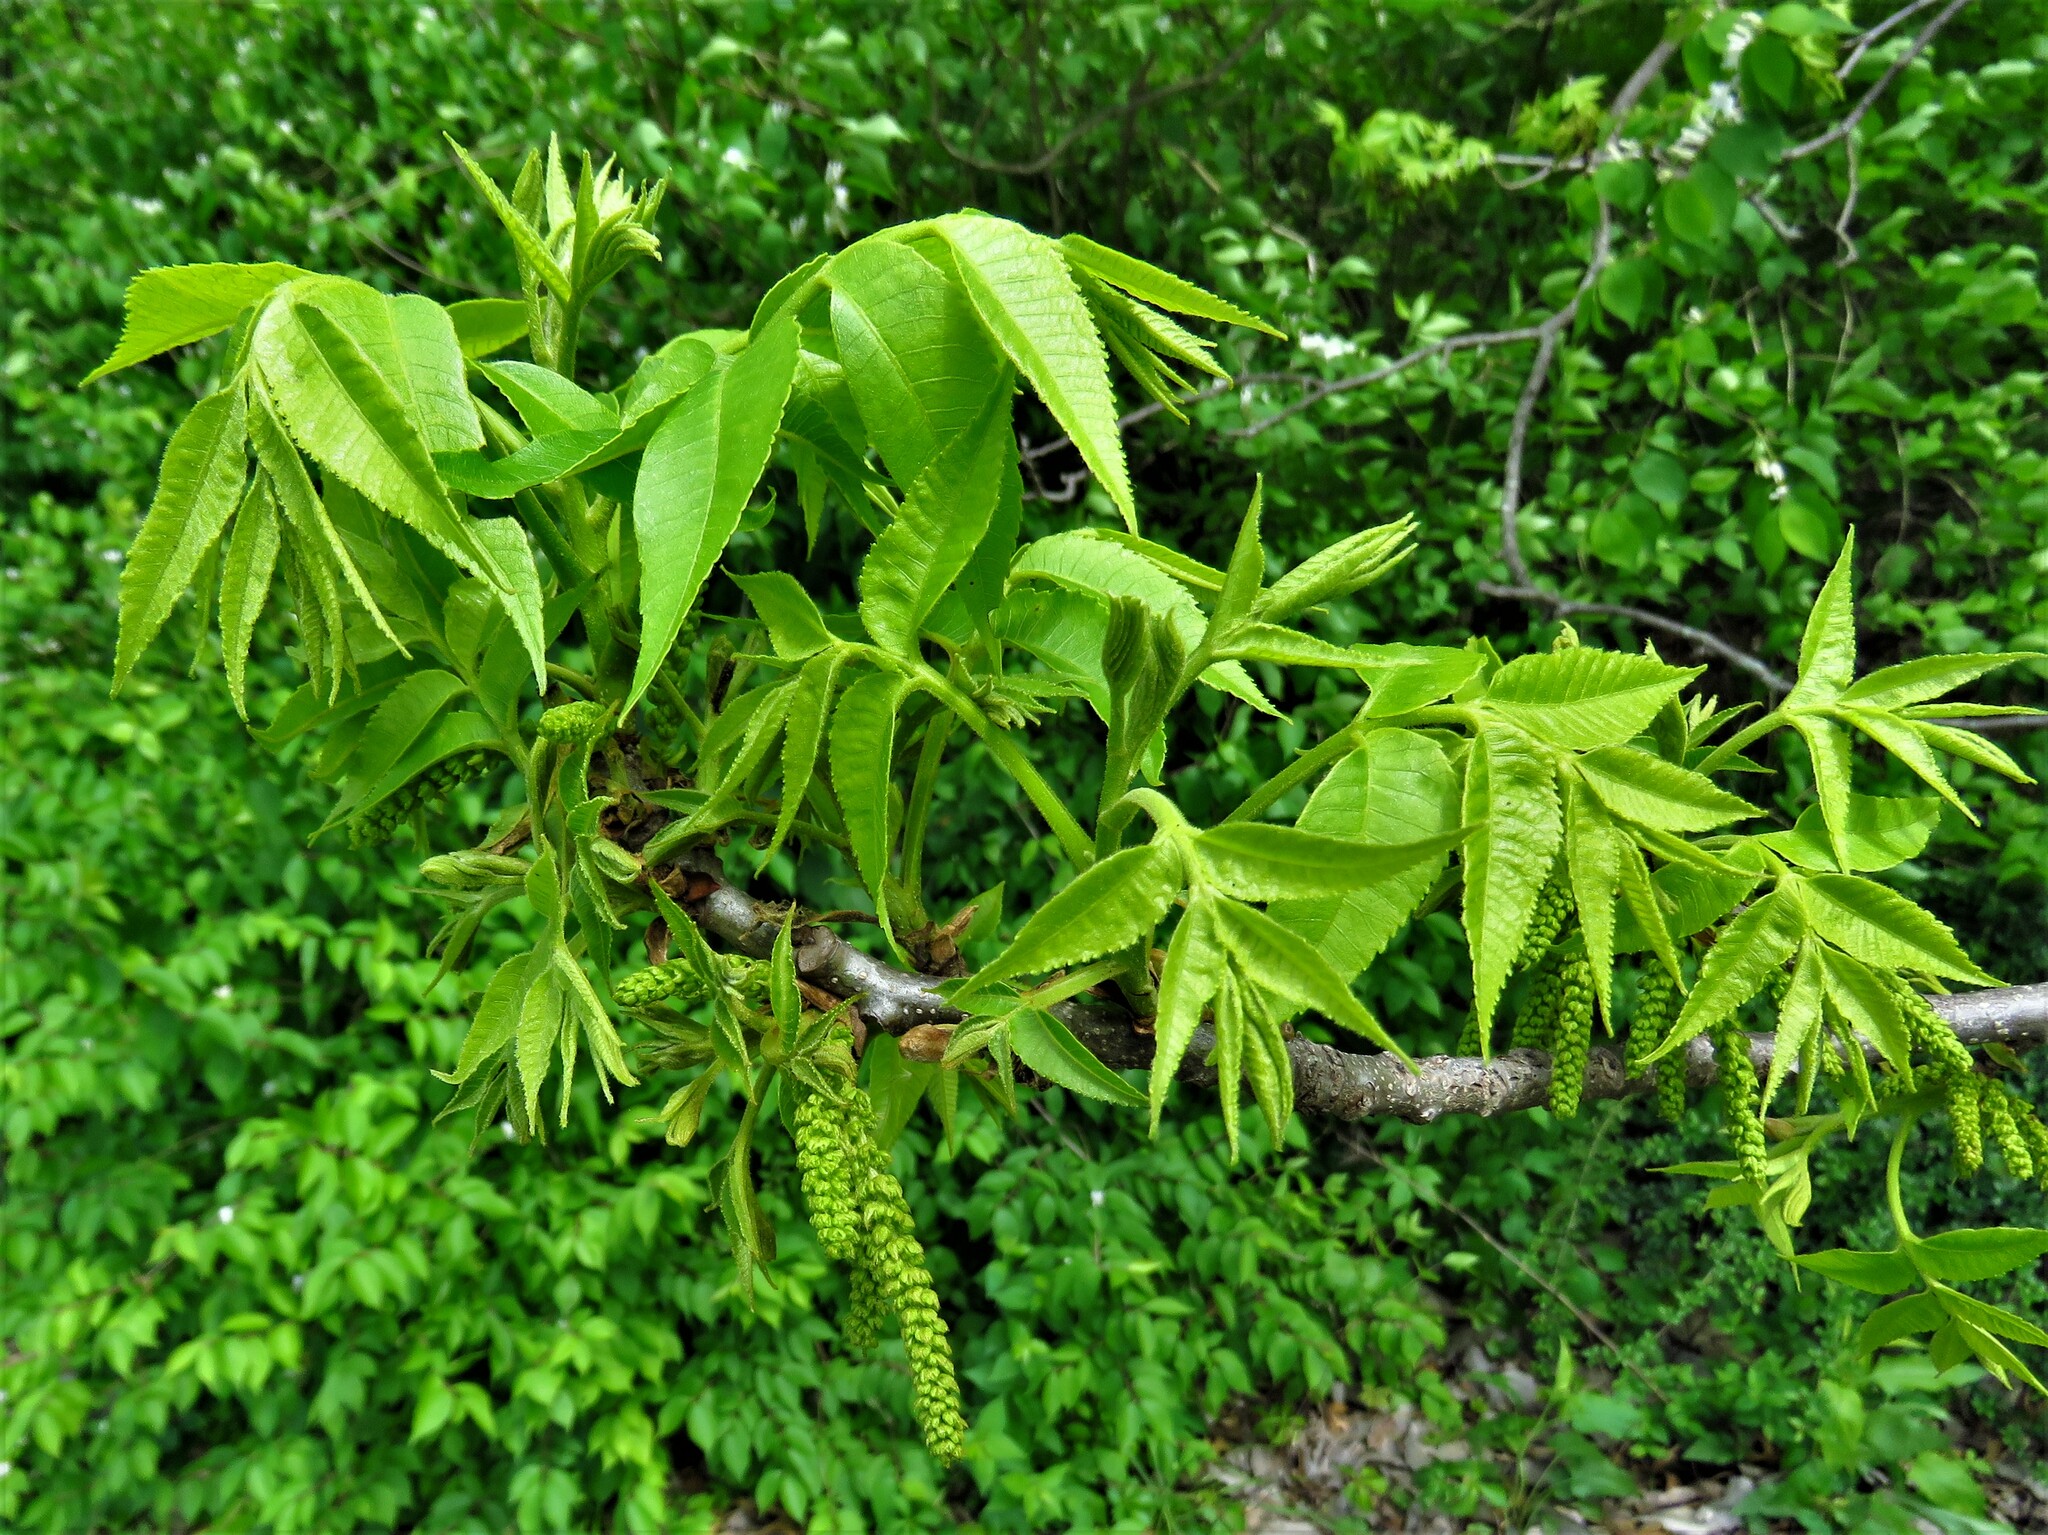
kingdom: Plantae
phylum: Tracheophyta
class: Magnoliopsida
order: Fagales
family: Juglandaceae
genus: Carya
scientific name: Carya illinoinensis
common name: Pecan
